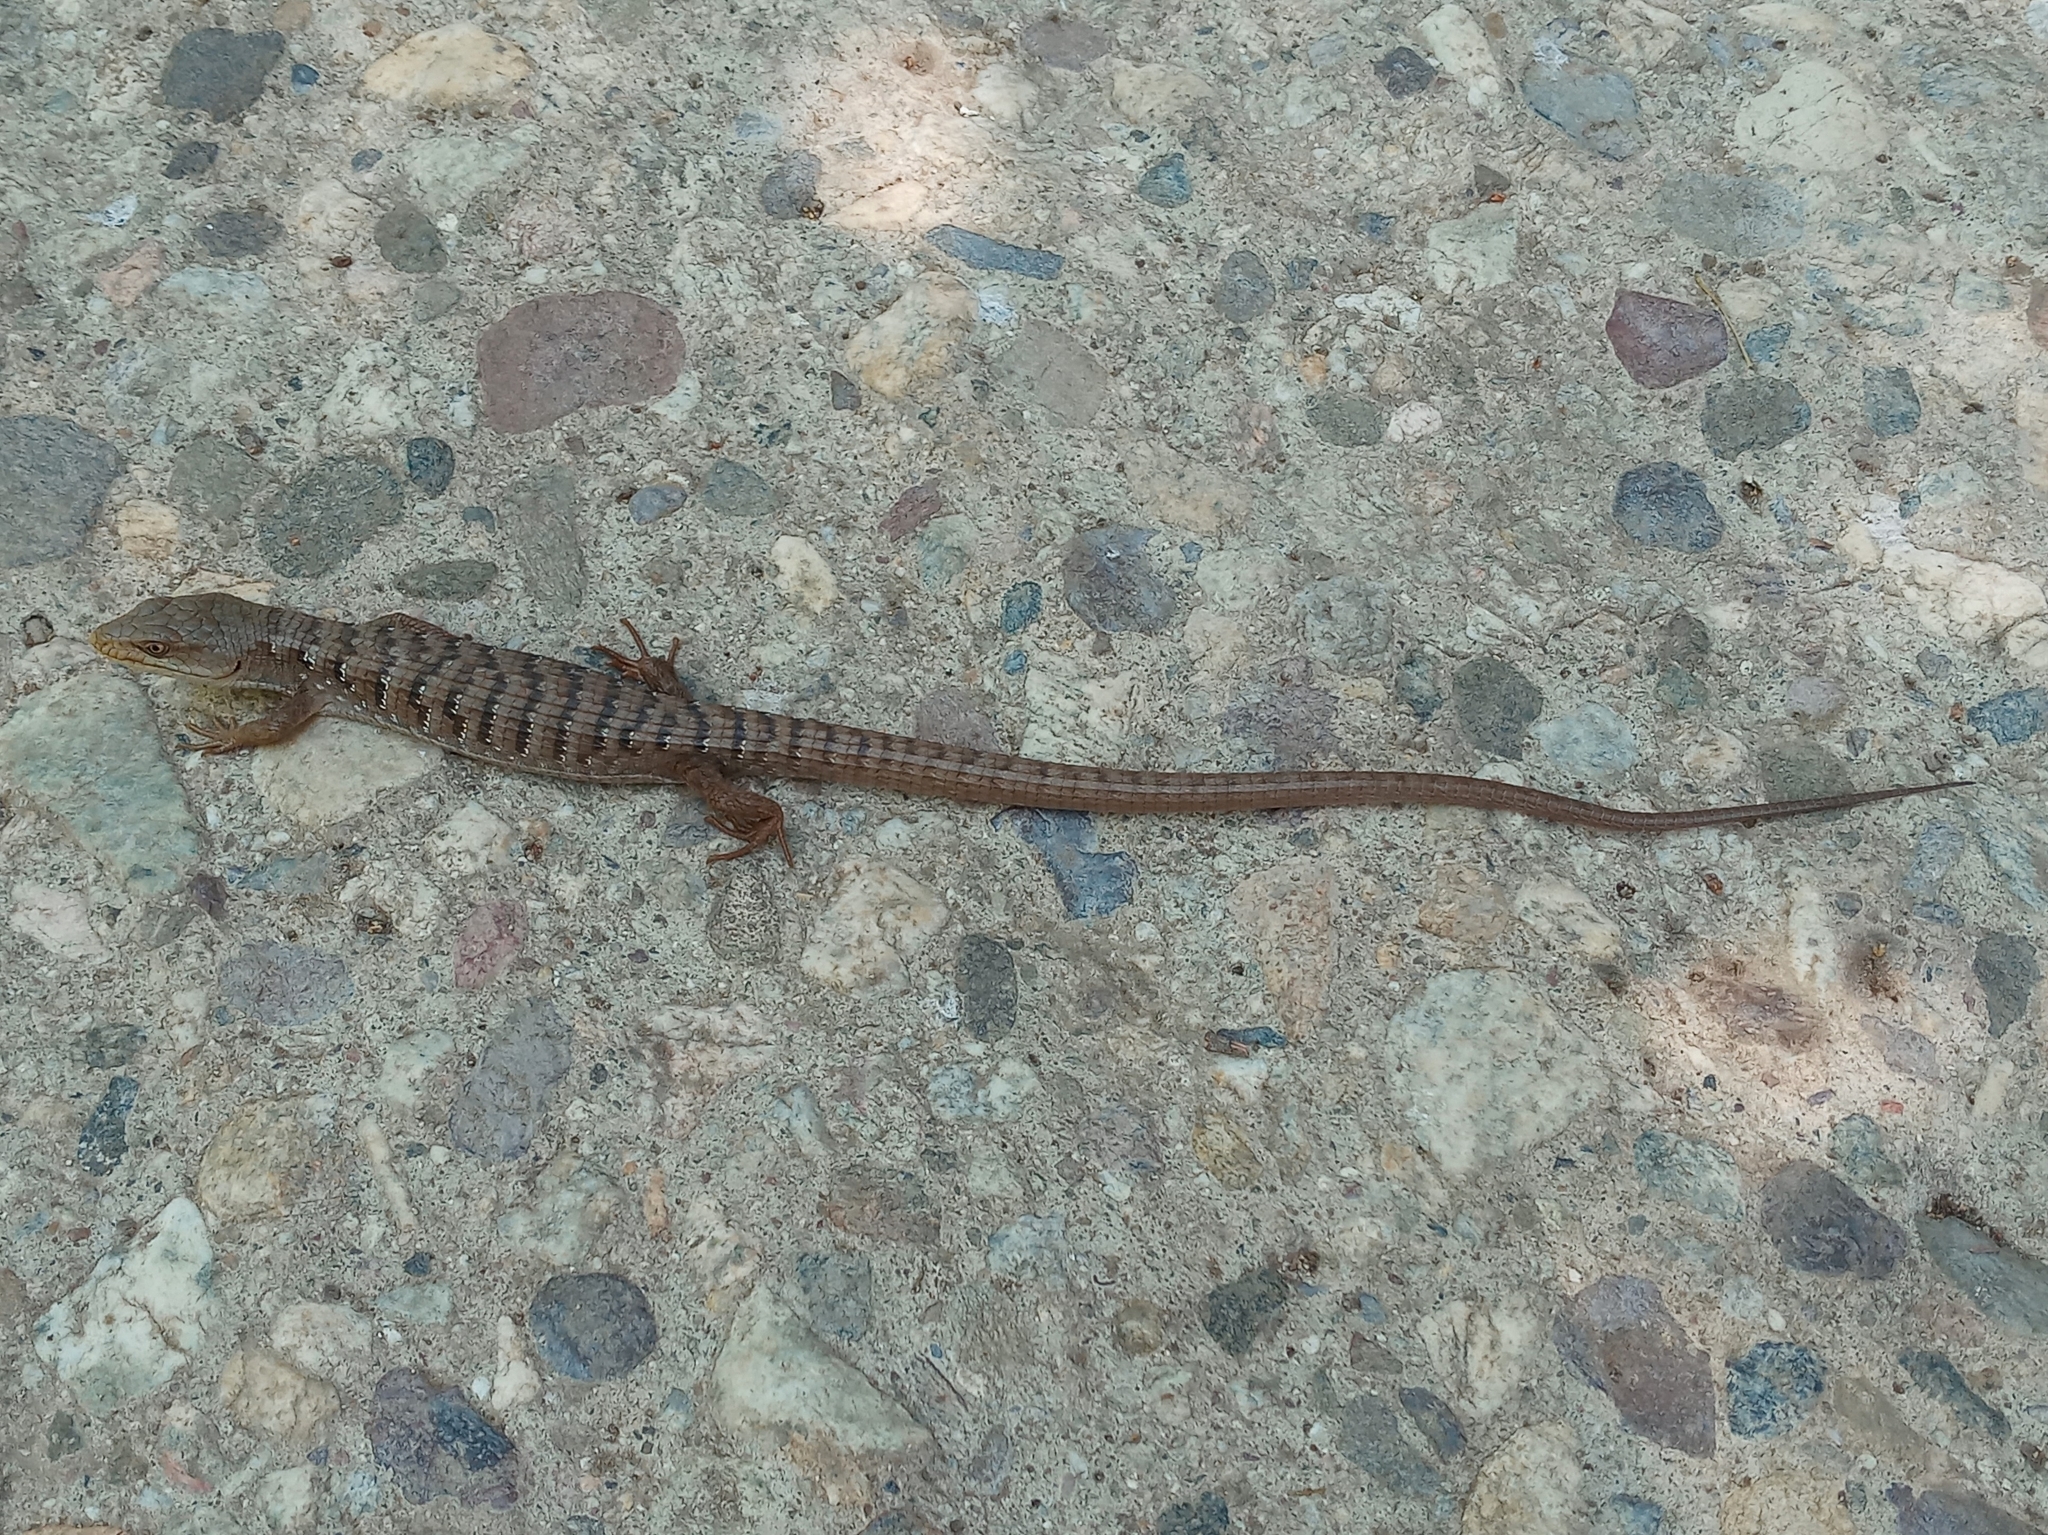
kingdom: Animalia
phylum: Chordata
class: Squamata
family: Anguidae
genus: Elgaria
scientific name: Elgaria multicarinata
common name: Southern alligator lizard
